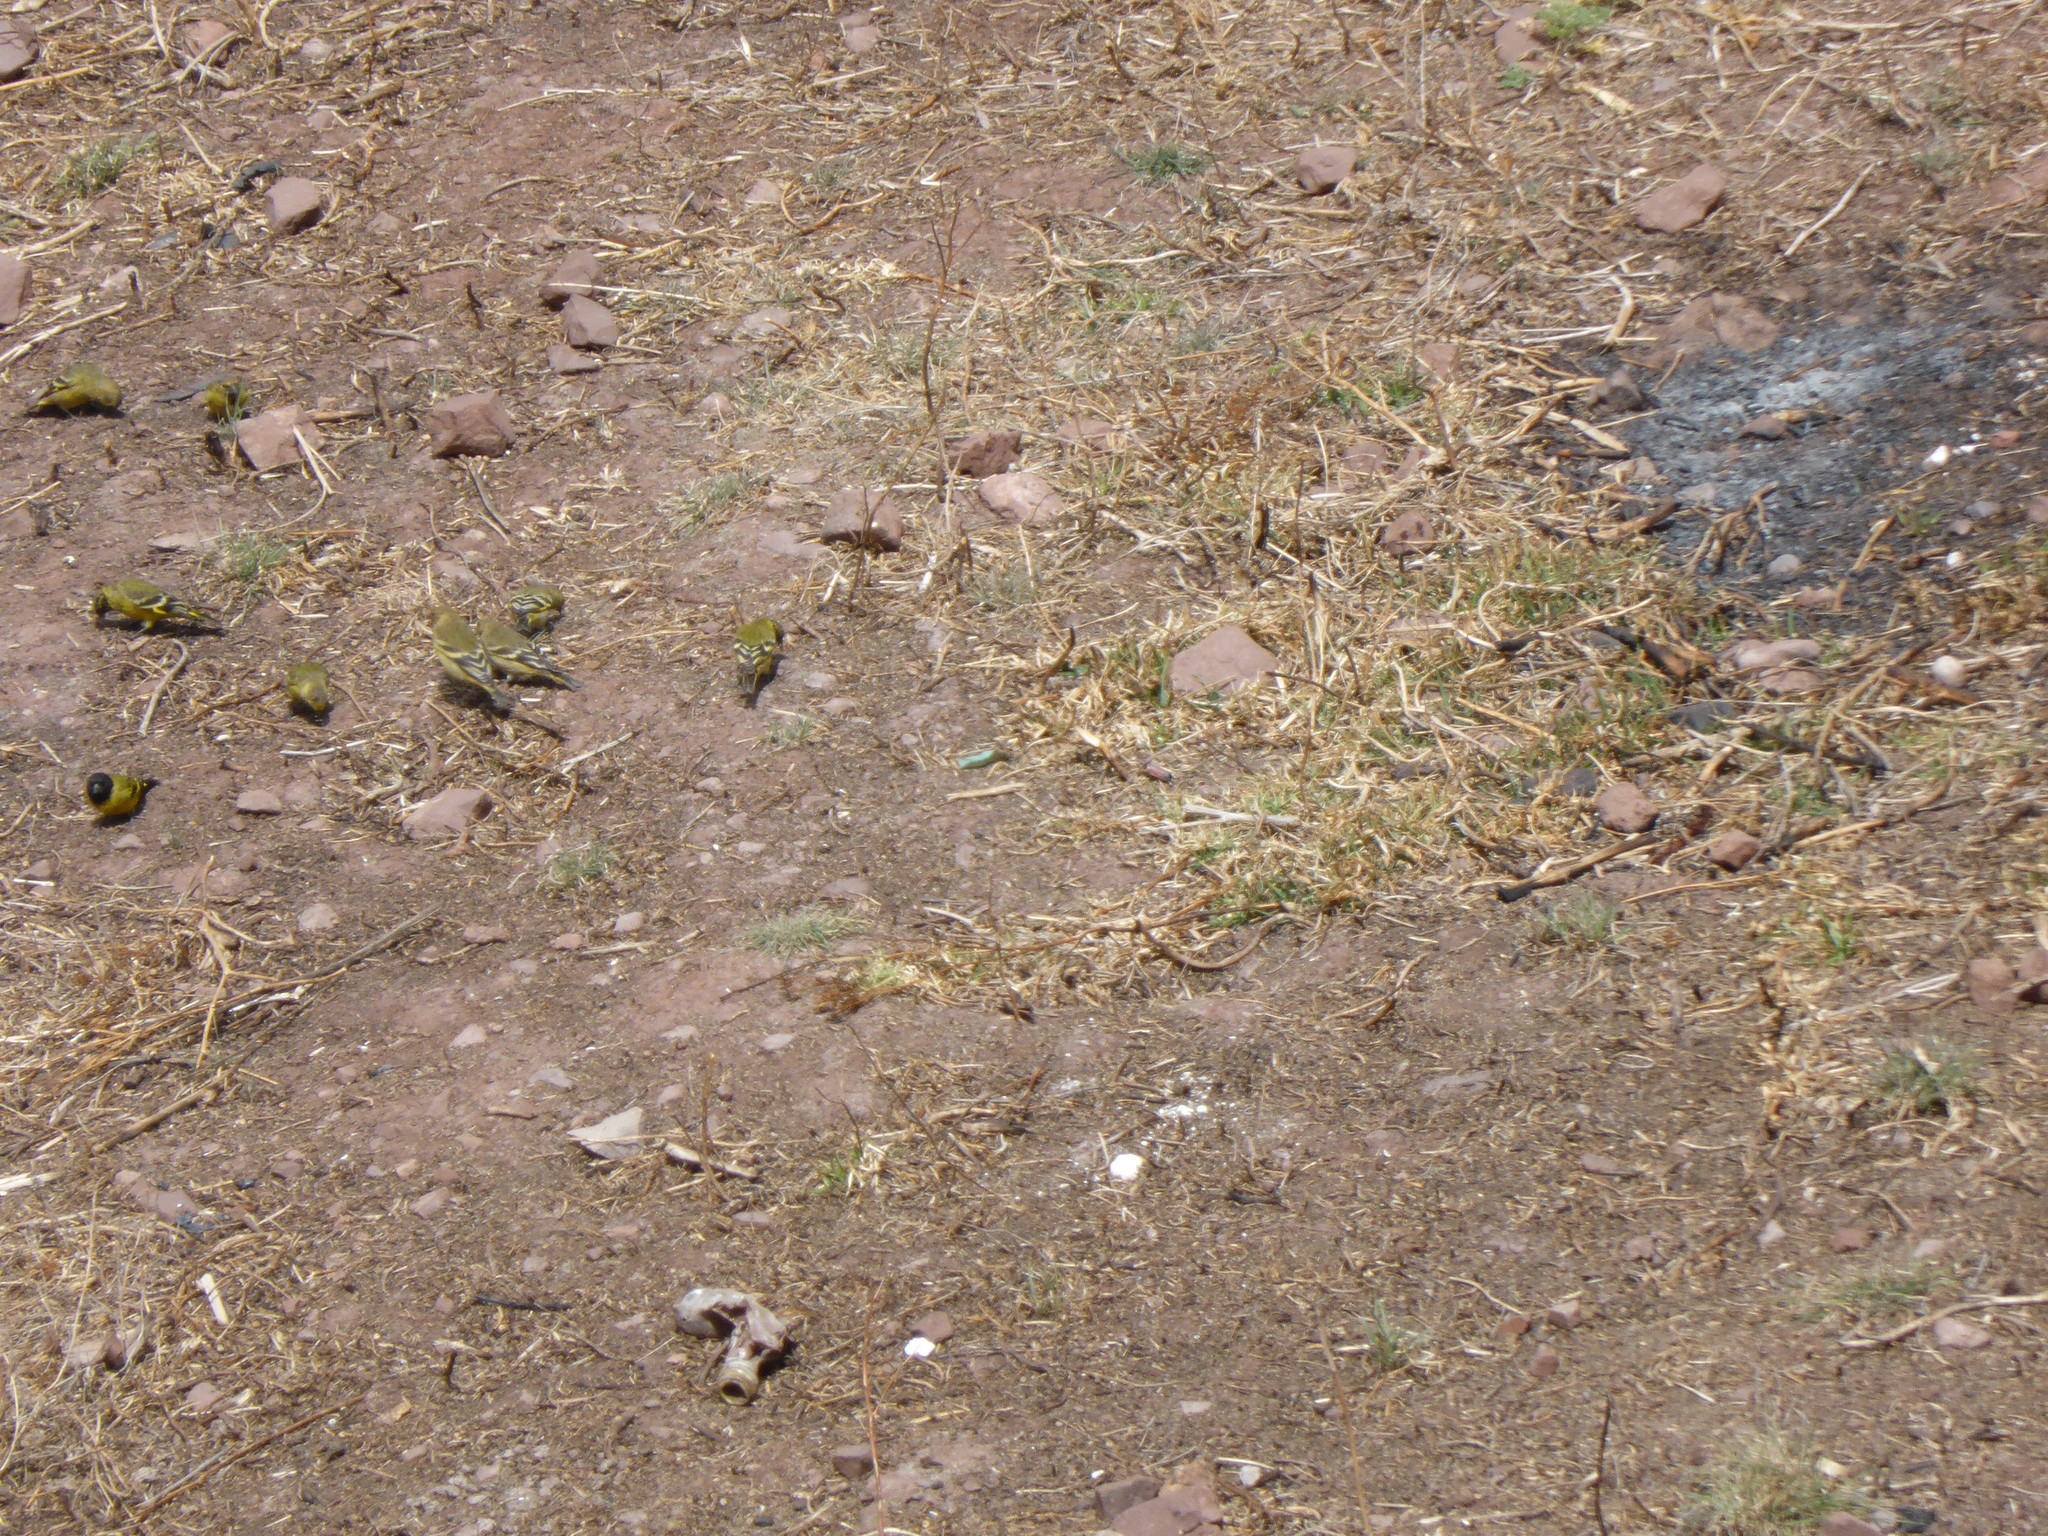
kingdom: Animalia
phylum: Chordata
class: Aves
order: Passeriformes
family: Fringillidae
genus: Spinus
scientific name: Spinus magellanicus
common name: Hooded siskin
